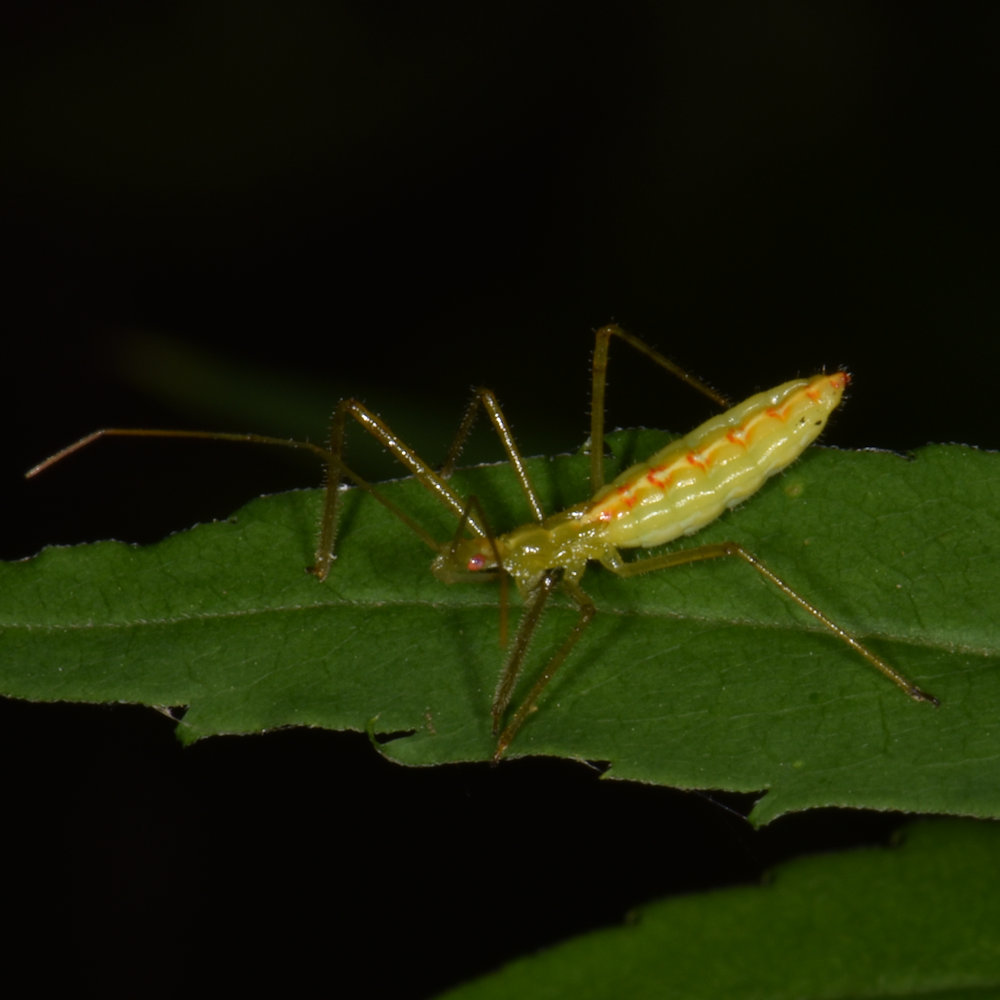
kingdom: Animalia
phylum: Arthropoda
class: Insecta
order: Hemiptera
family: Reduviidae
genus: Zelus
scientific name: Zelus luridus
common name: Pale green assassin bug
